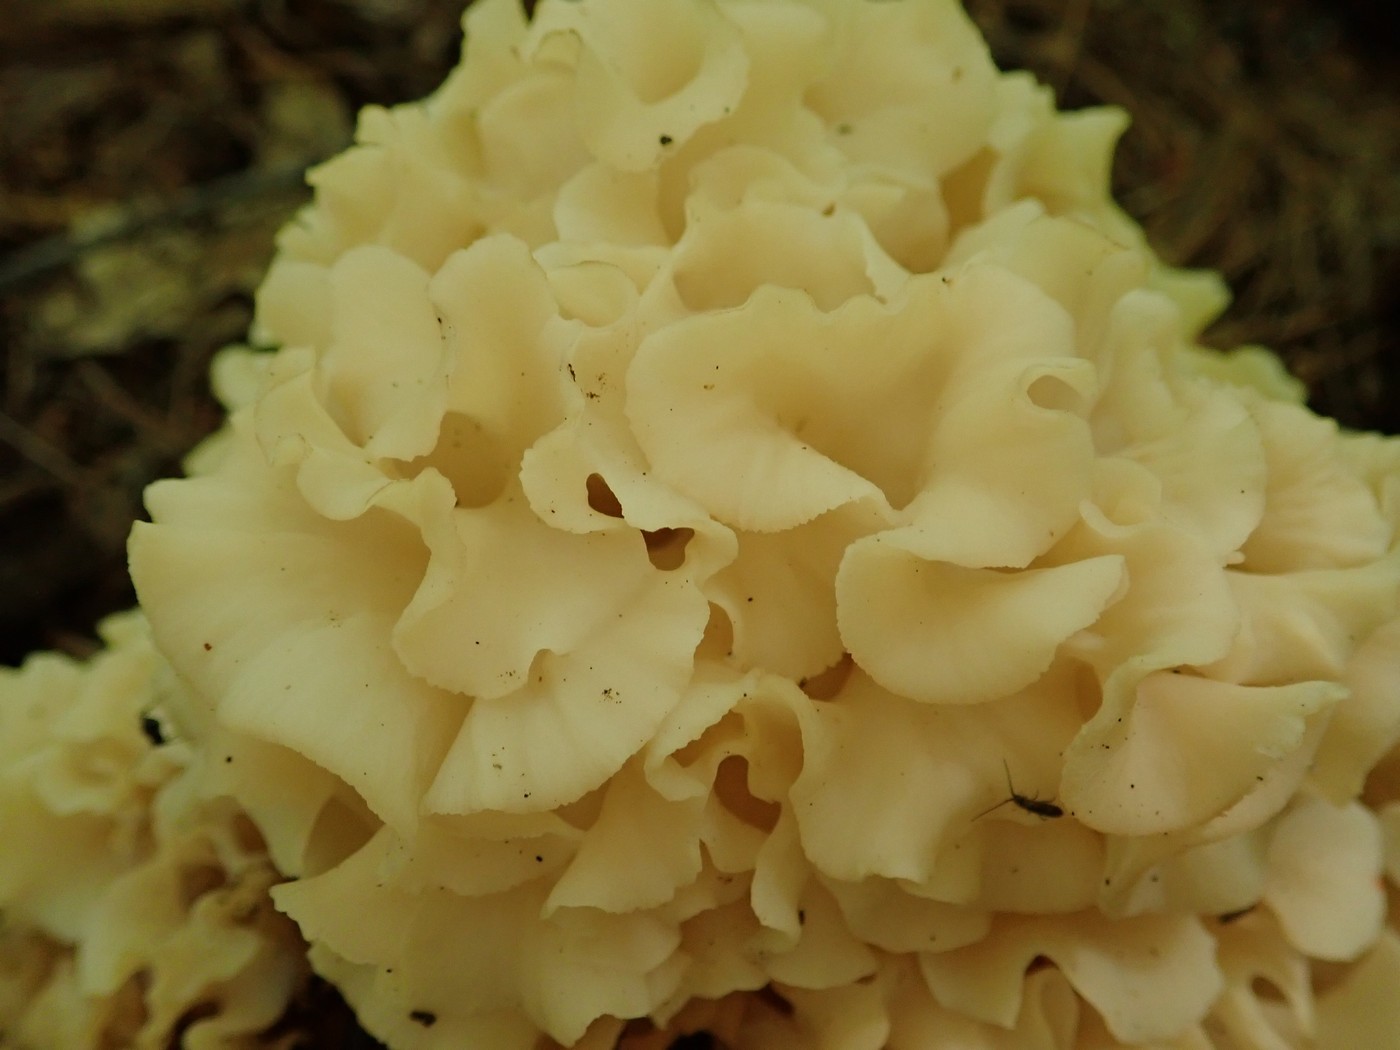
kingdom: Fungi
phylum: Basidiomycota
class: Agaricomycetes
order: Polyporales
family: Sparassidaceae
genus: Sparassis
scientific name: Sparassis americana
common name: American cauliflower mushroom
